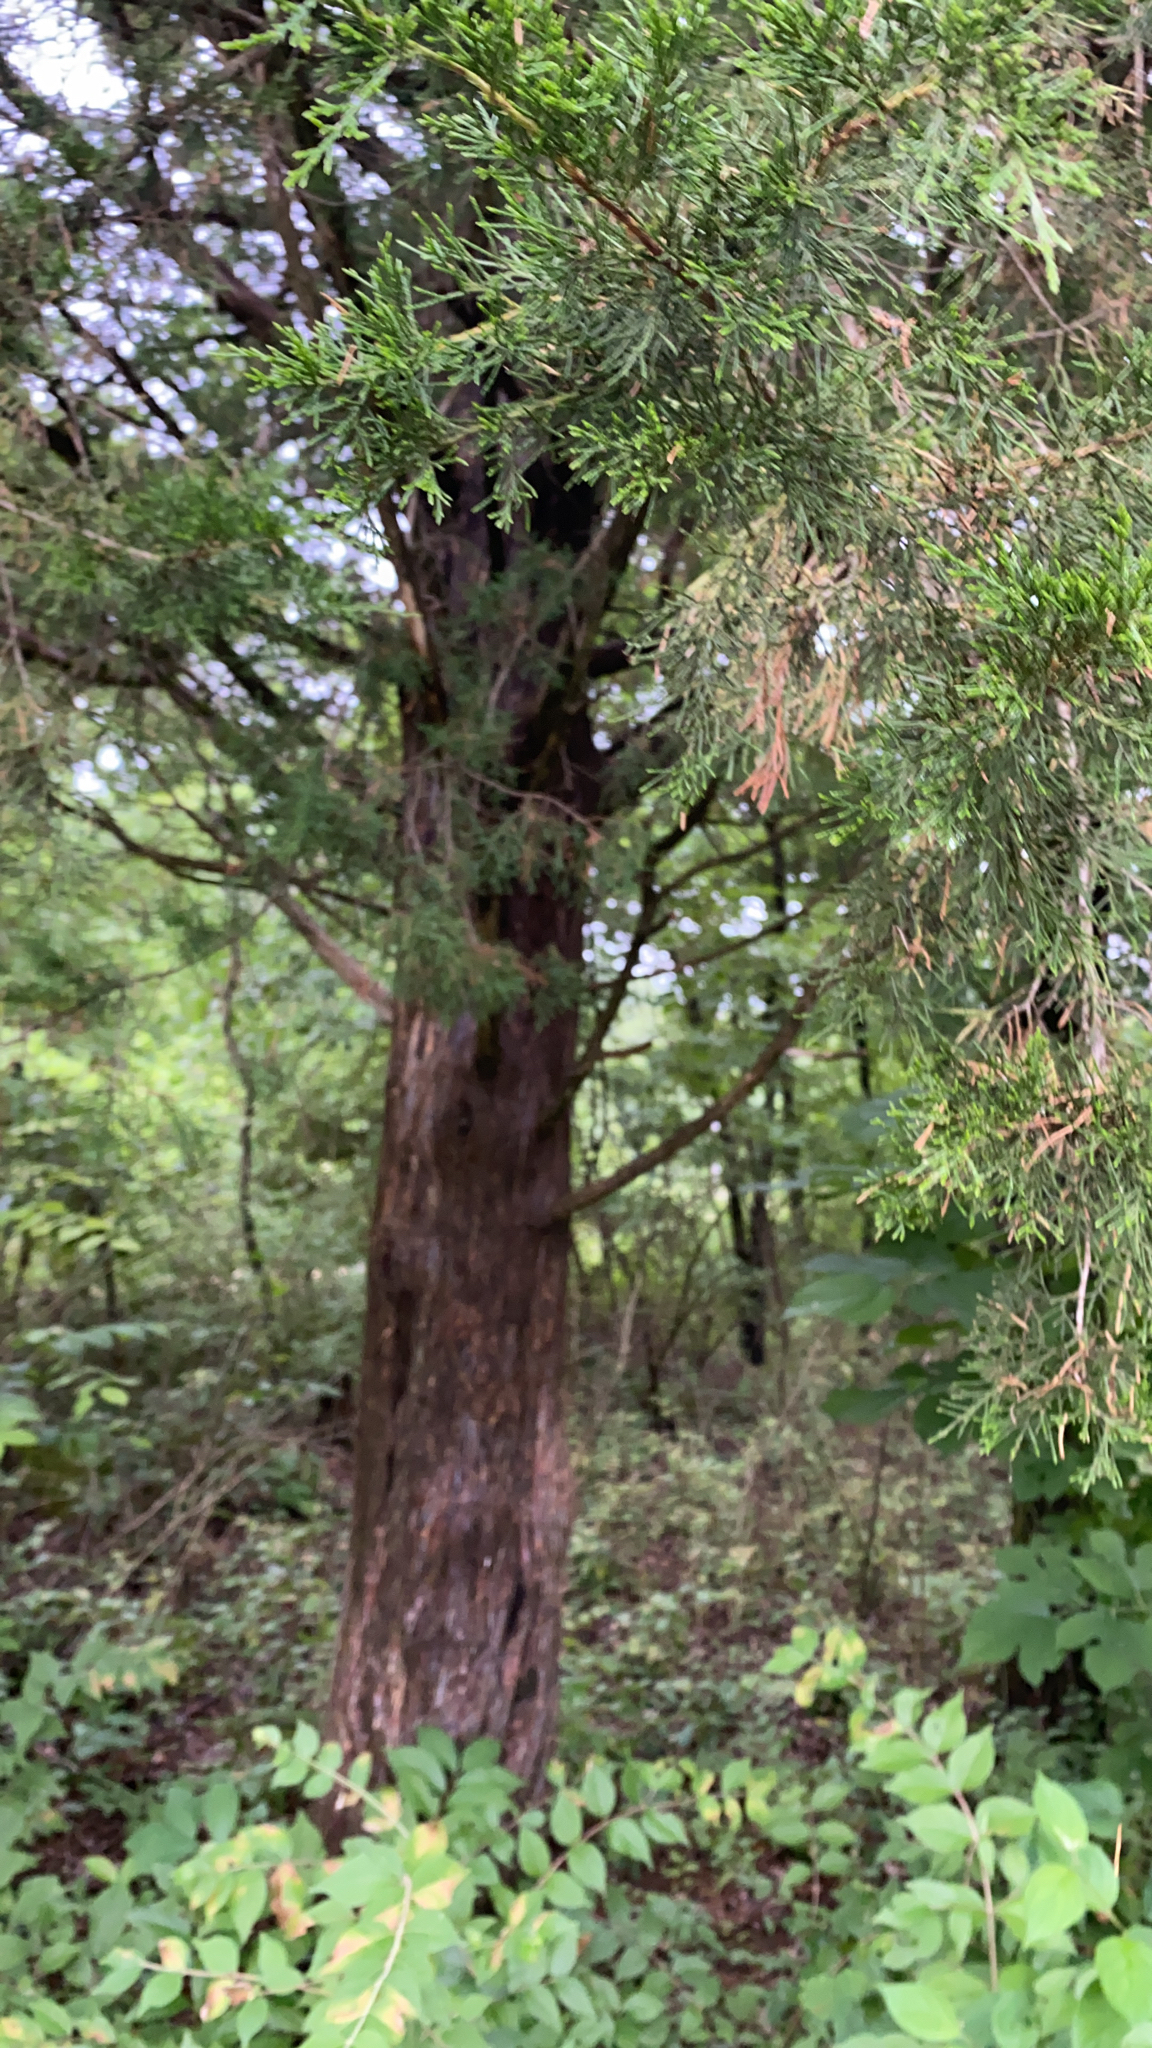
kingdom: Plantae
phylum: Tracheophyta
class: Pinopsida
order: Pinales
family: Cupressaceae
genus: Juniperus
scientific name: Juniperus virginiana
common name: Red juniper
